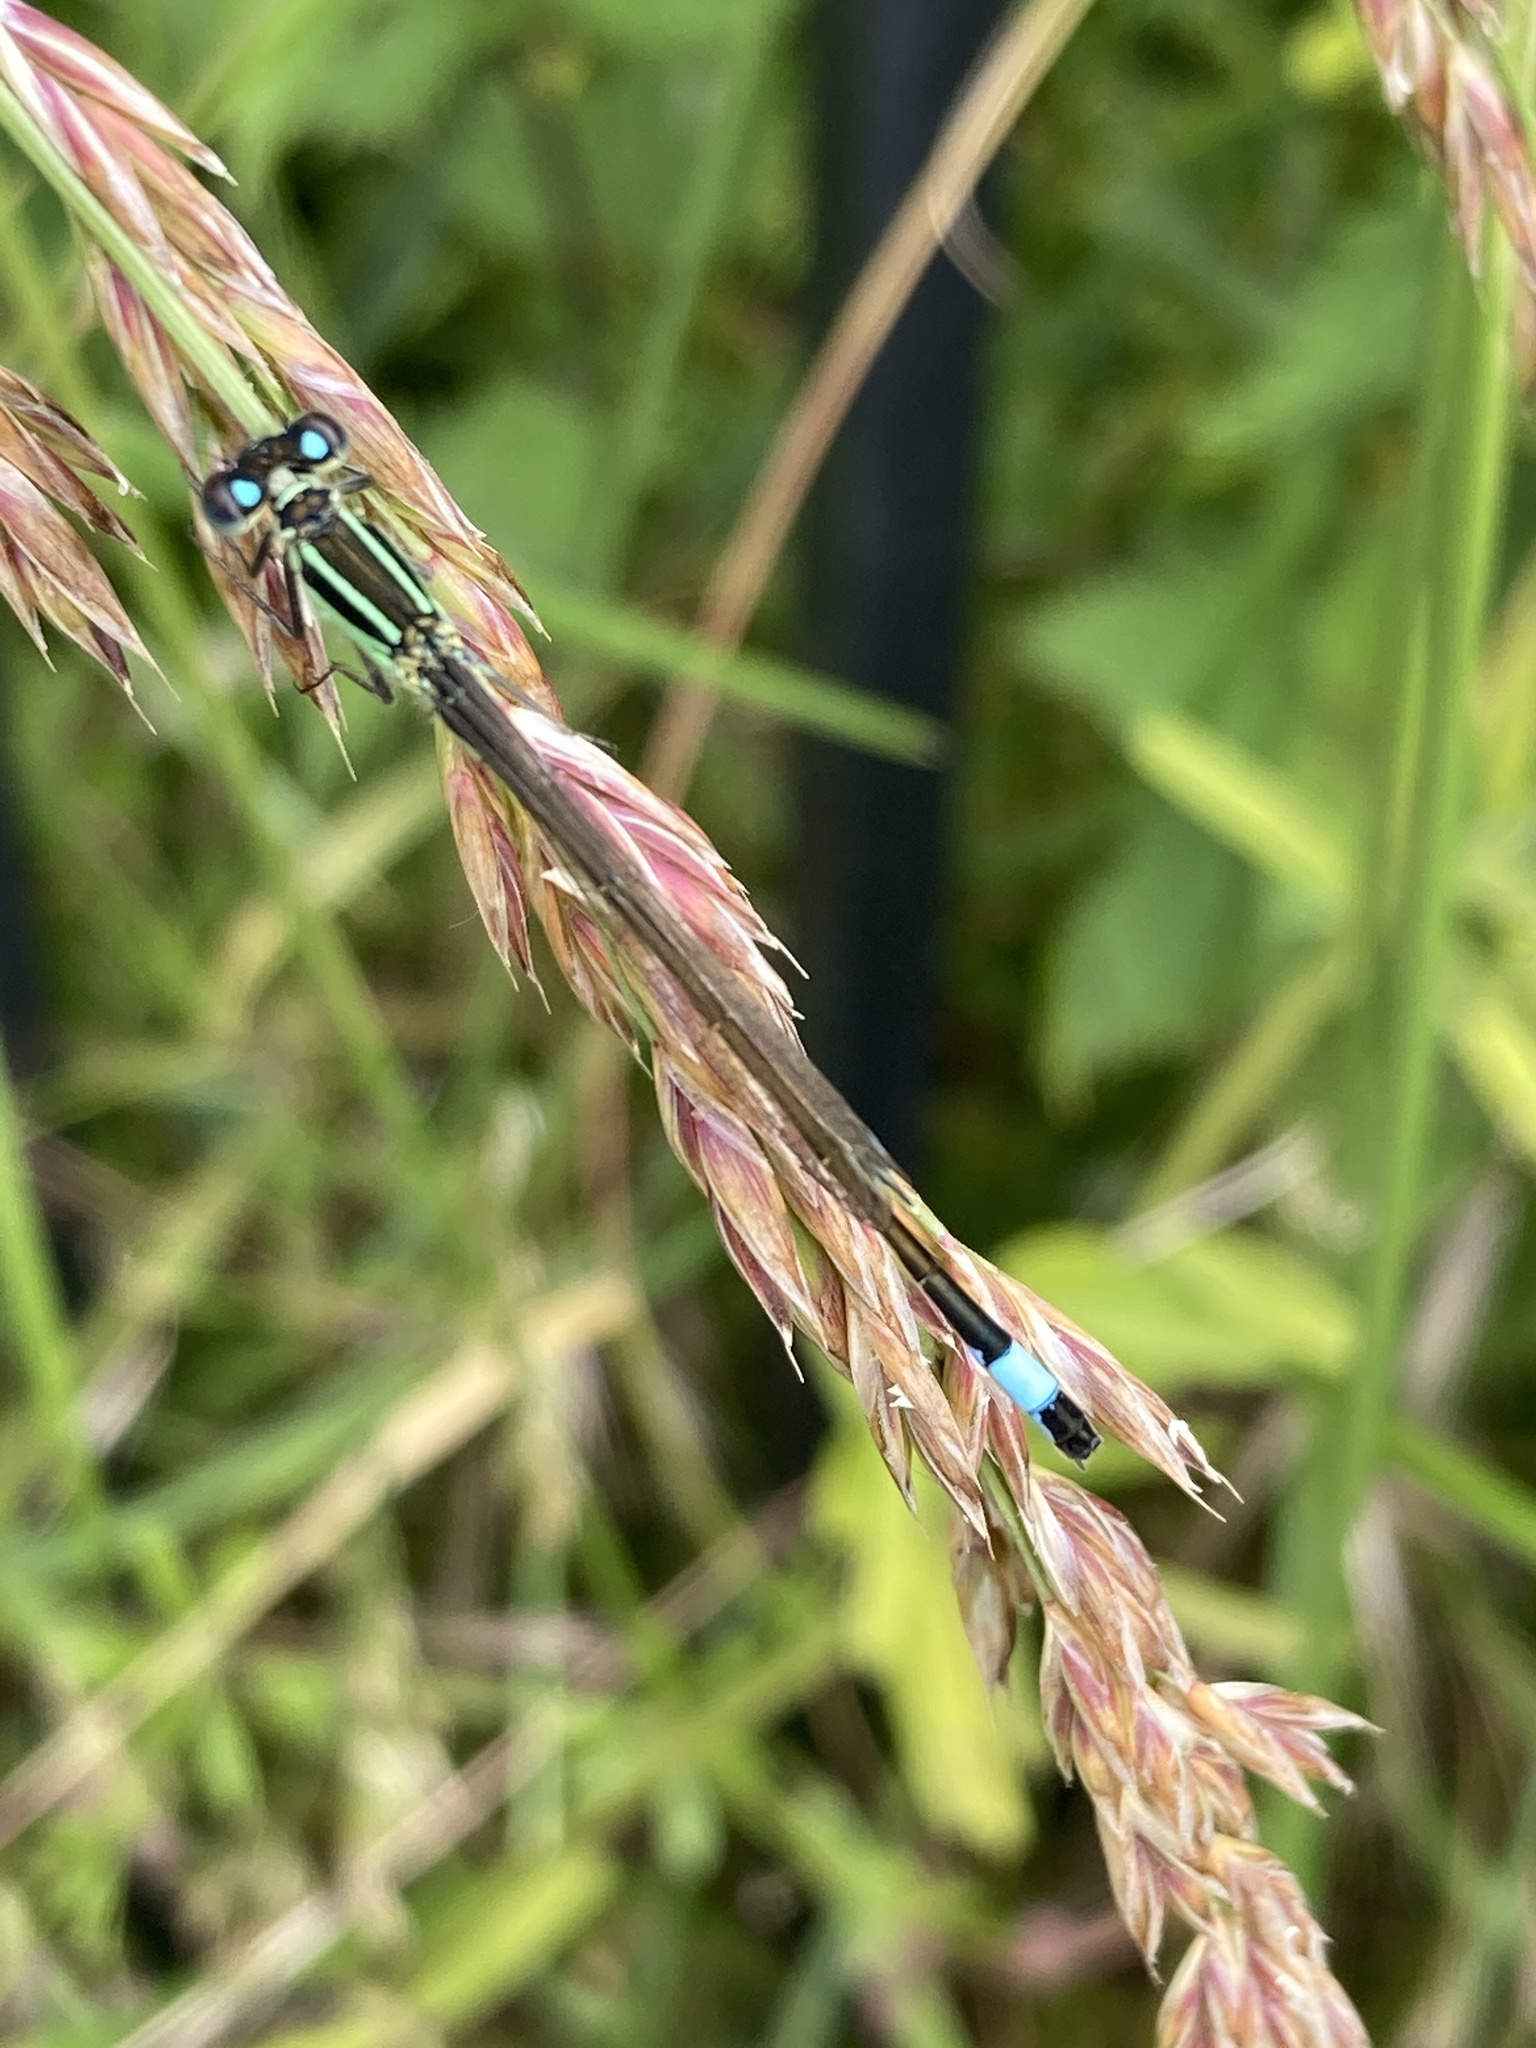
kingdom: Animalia
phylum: Arthropoda
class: Insecta
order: Odonata
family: Coenagrionidae
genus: Ischnura
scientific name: Ischnura elegans
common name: Blue-tailed damselfly
